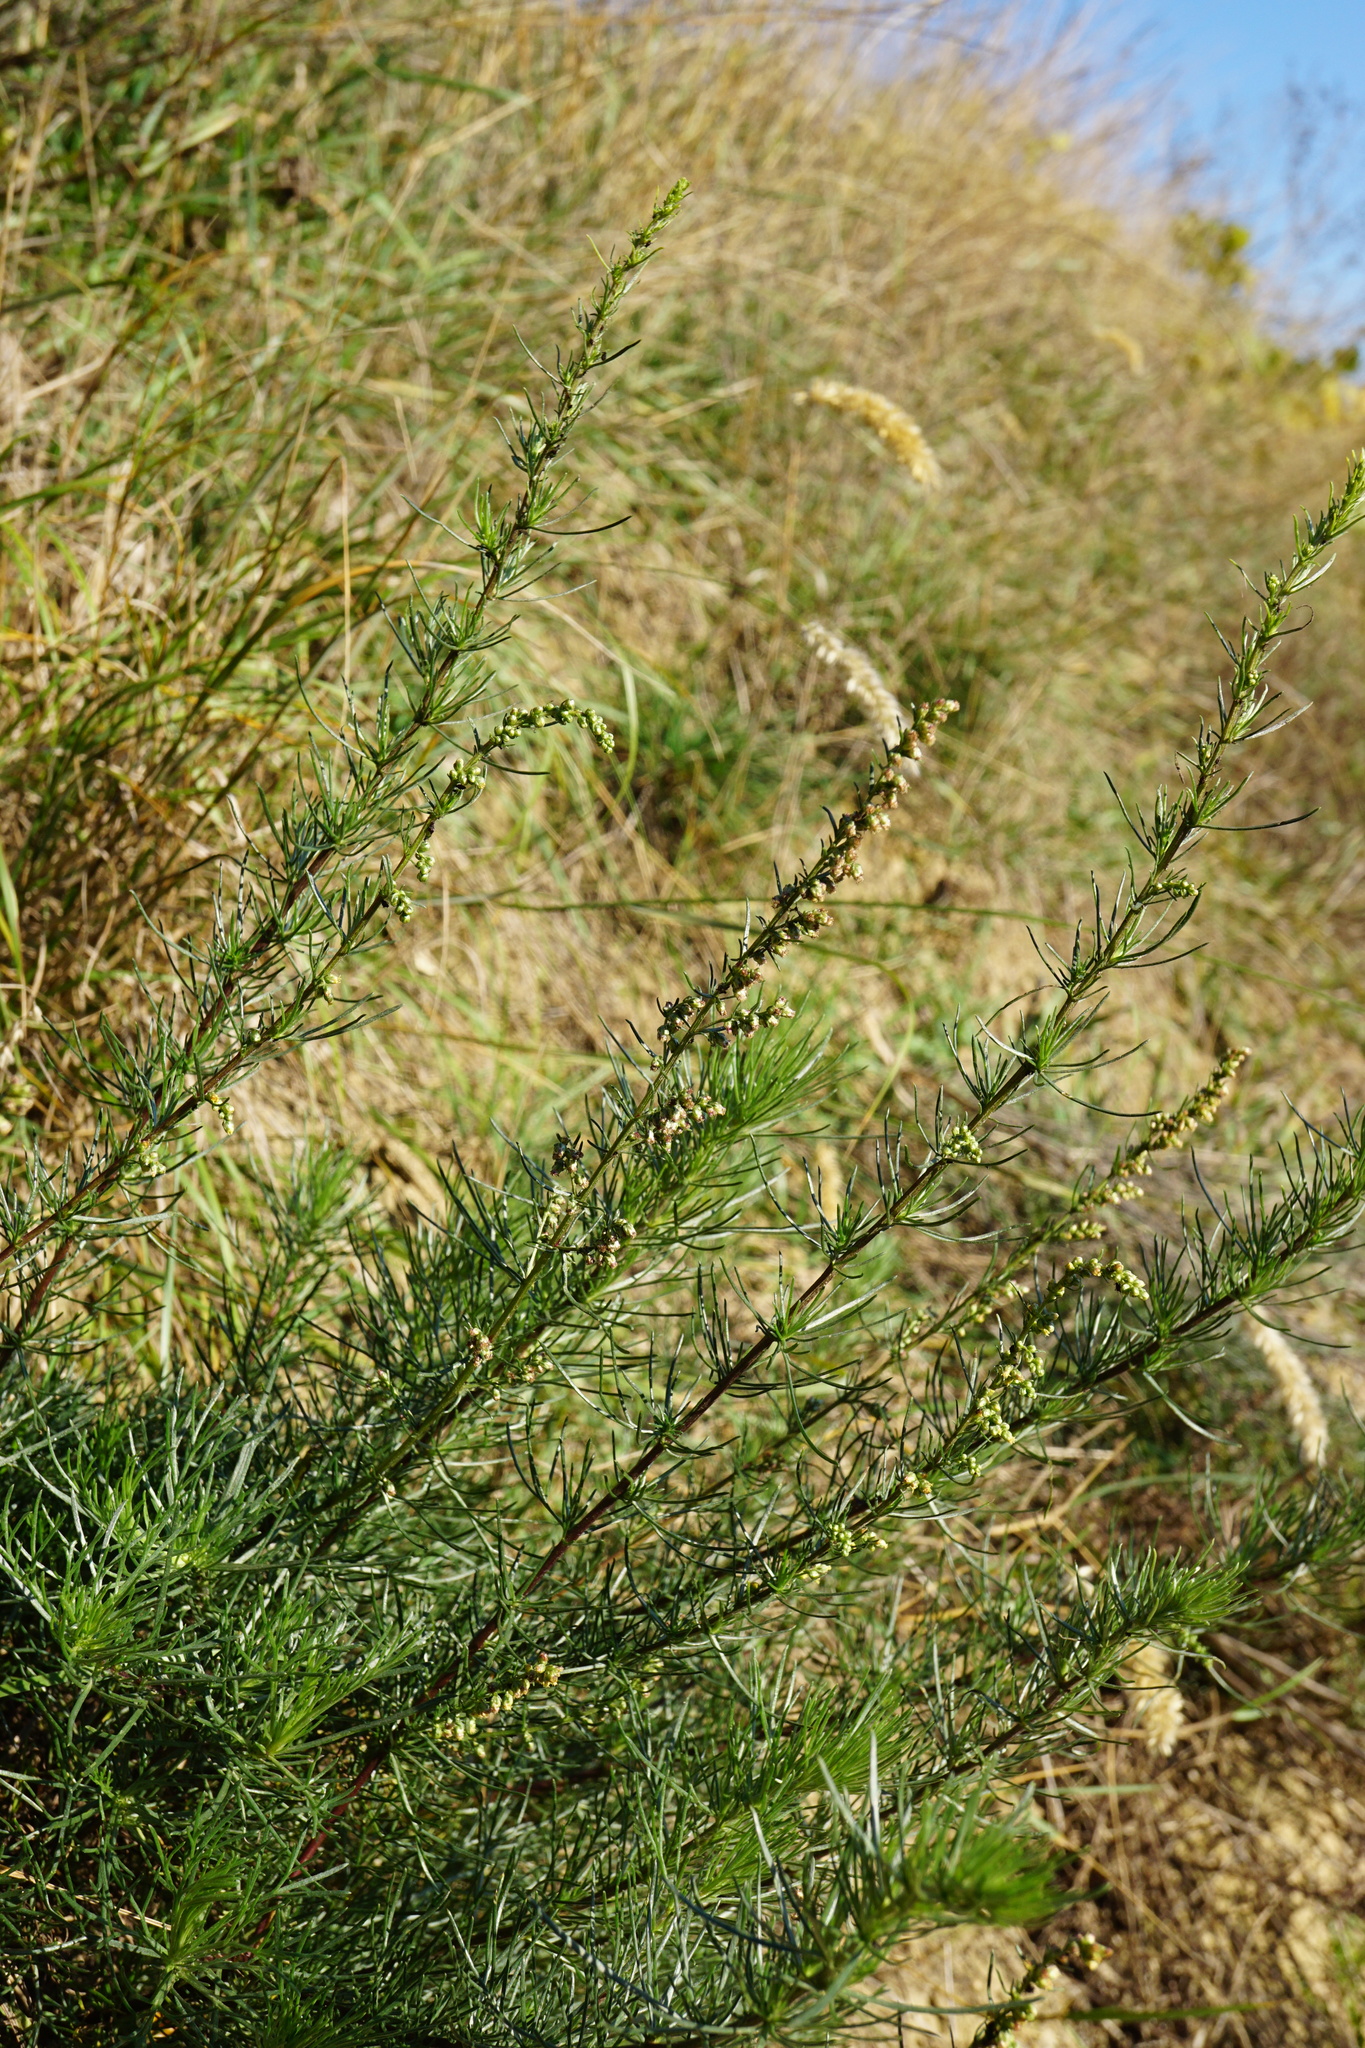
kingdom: Plantae
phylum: Tracheophyta
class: Magnoliopsida
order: Asterales
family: Asteraceae
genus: Artemisia
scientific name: Artemisia campestris
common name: Field wormwood
